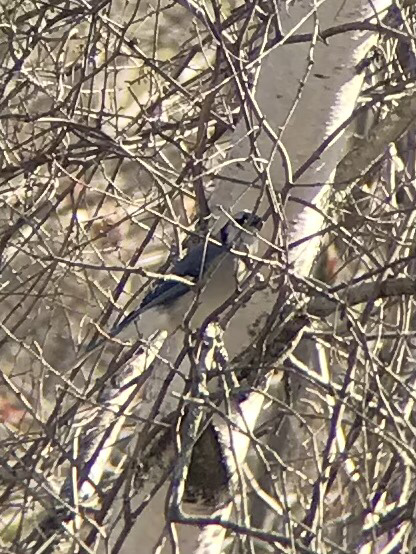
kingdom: Animalia
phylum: Chordata
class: Aves
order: Passeriformes
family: Corvidae
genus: Cyanocitta
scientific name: Cyanocitta cristata
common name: Blue jay
